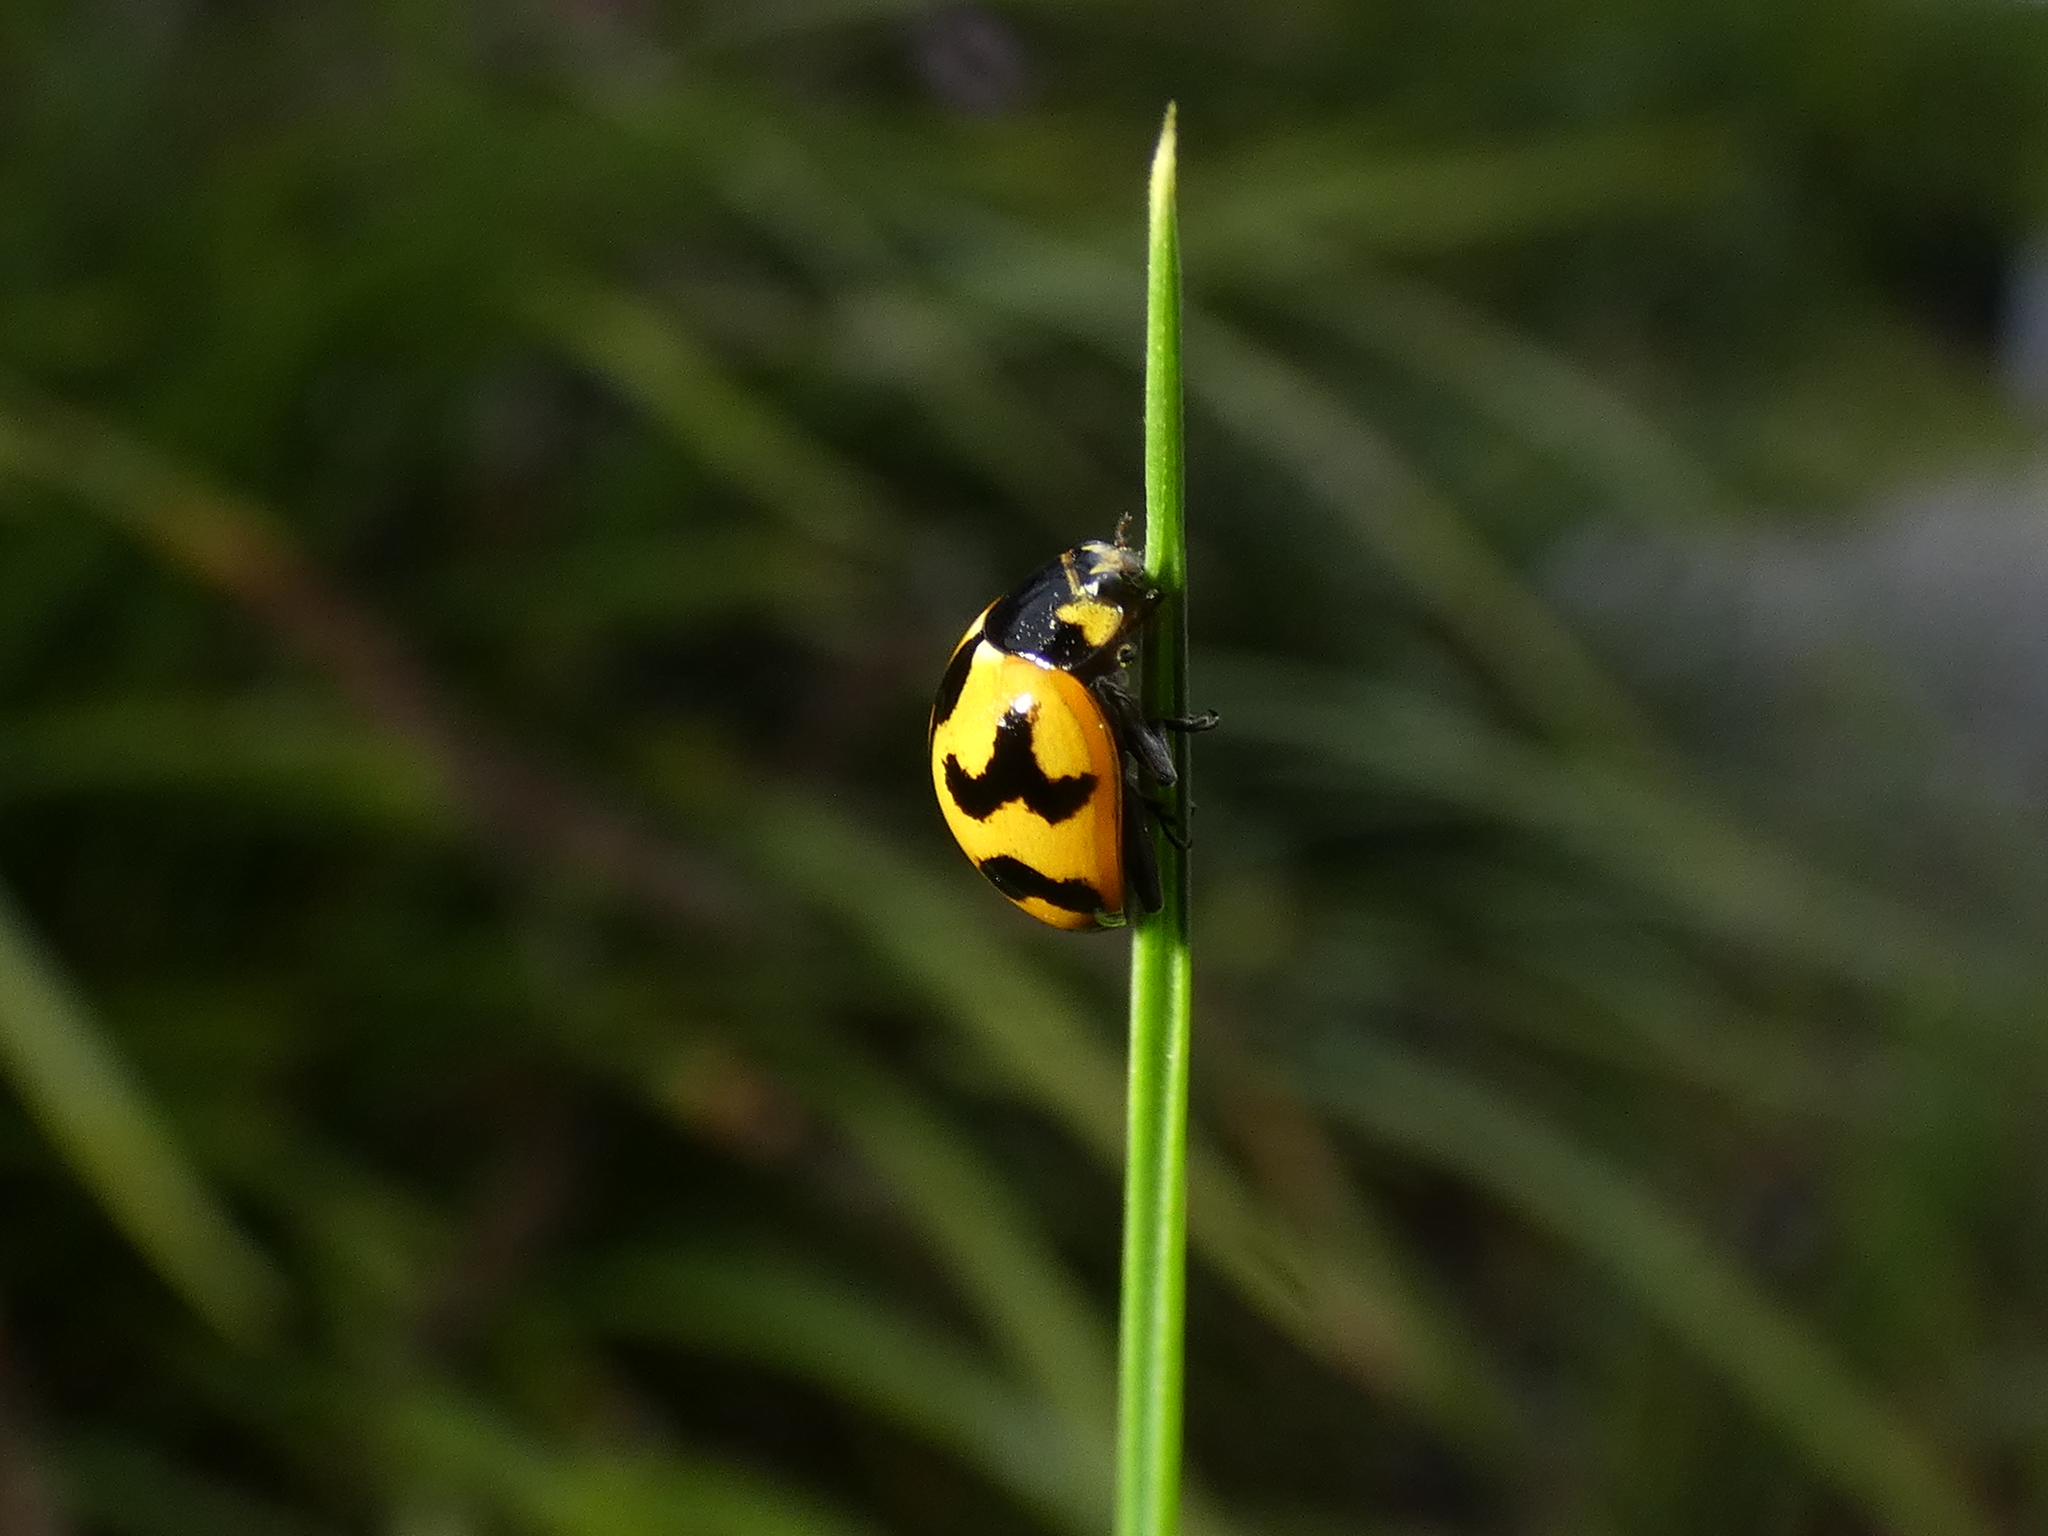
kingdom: Animalia
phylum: Arthropoda
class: Insecta
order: Coleoptera
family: Coccinellidae
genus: Coccinella
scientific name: Coccinella transversalis
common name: Transverse lady beetle
